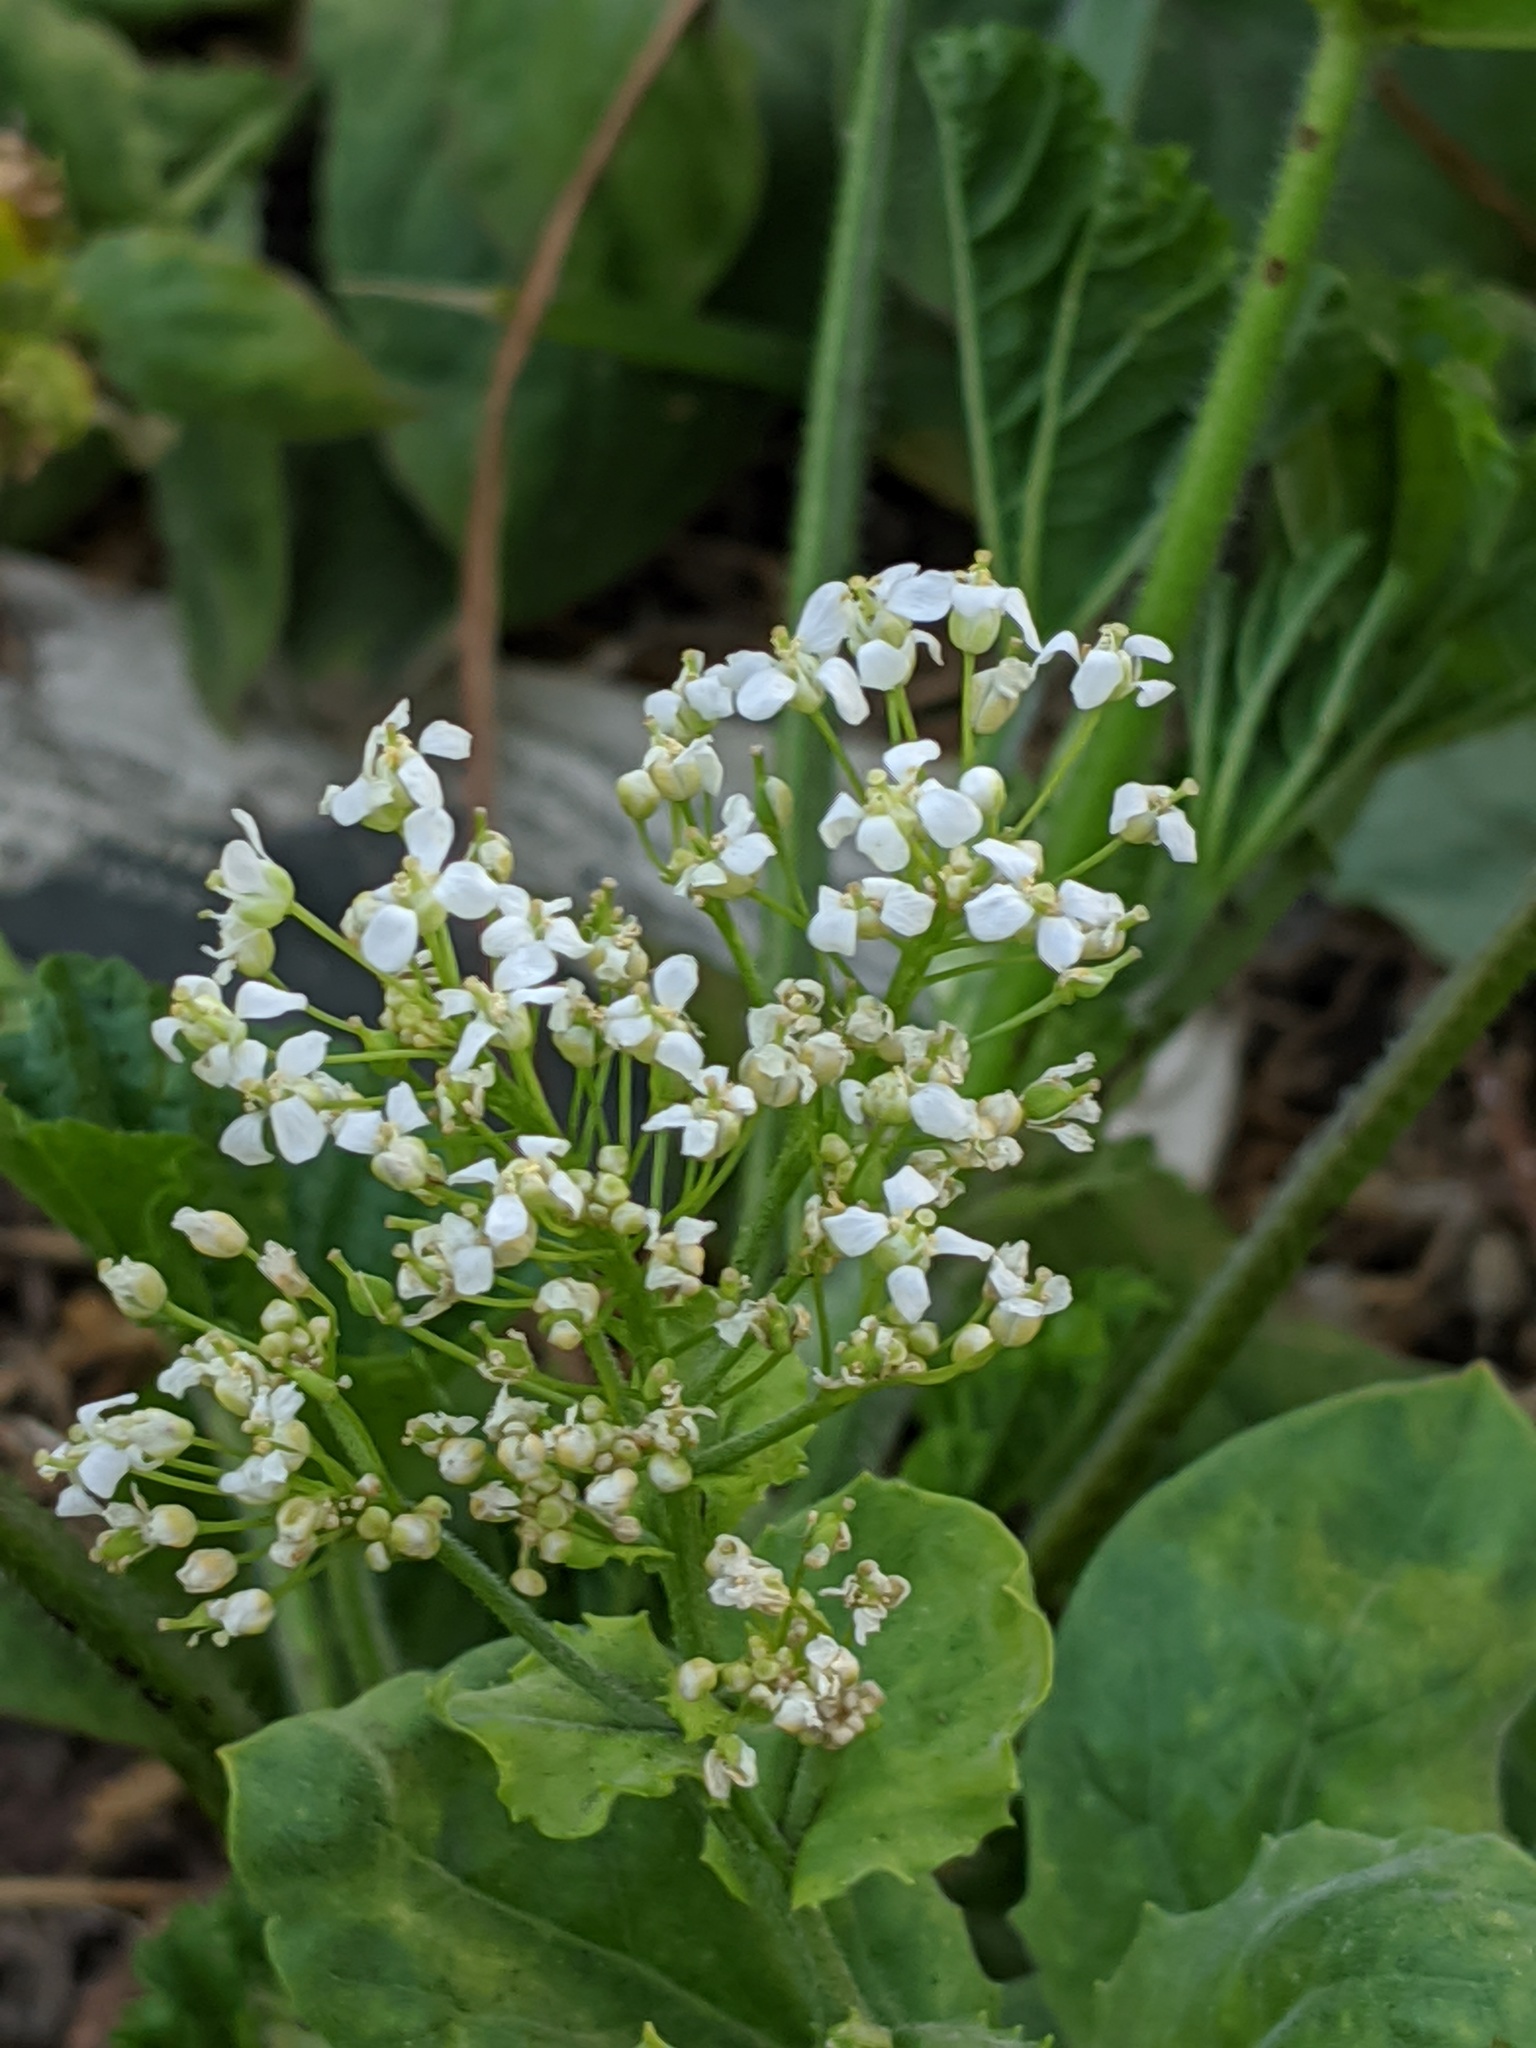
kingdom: Plantae
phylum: Tracheophyta
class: Magnoliopsida
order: Brassicales
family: Brassicaceae
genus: Lepidium
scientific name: Lepidium draba
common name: Hoary cress
